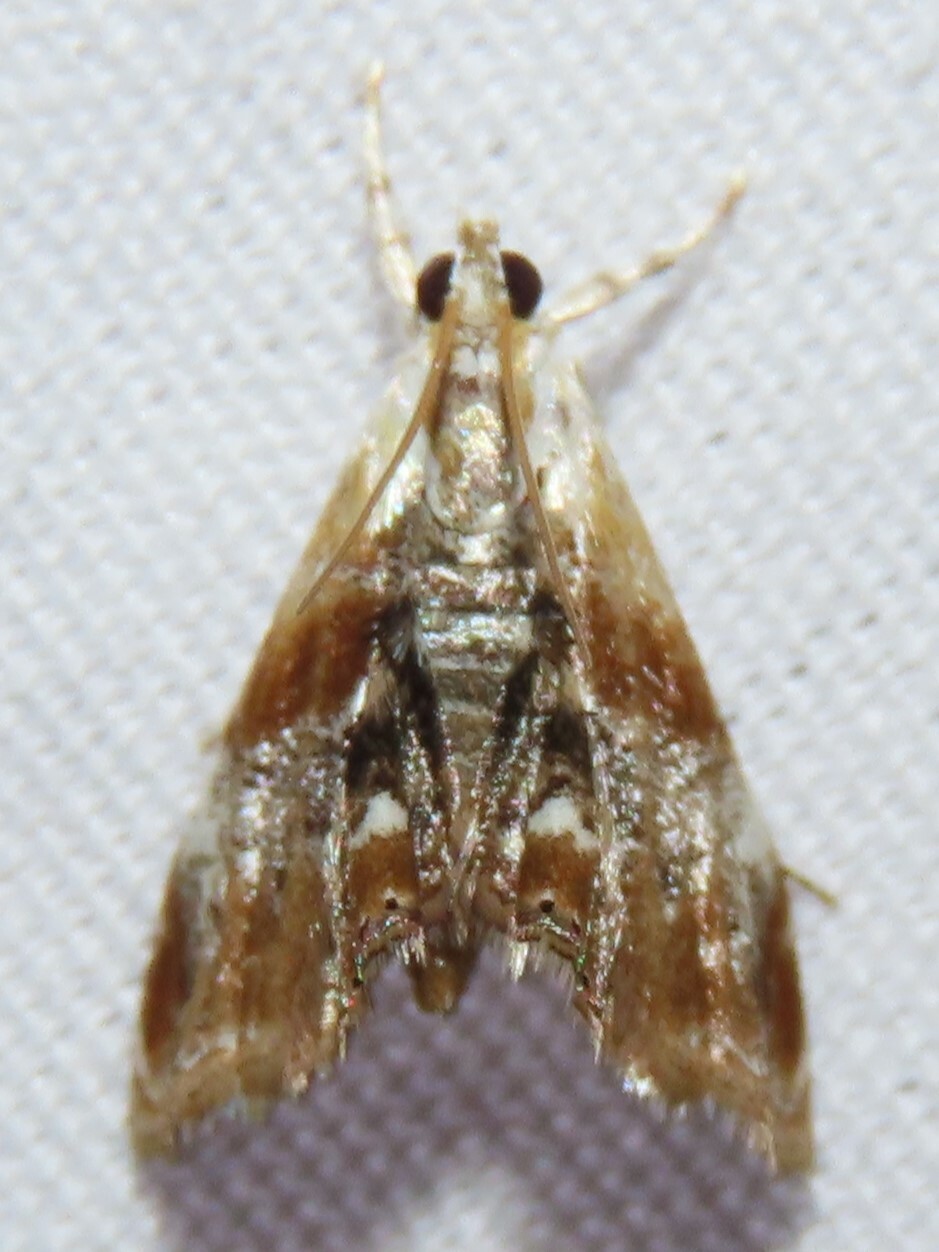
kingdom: Animalia
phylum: Arthropoda
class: Insecta
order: Lepidoptera
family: Crambidae
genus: Dicymolomia
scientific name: Dicymolomia julianalis
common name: Julia's dicymolomia moth
